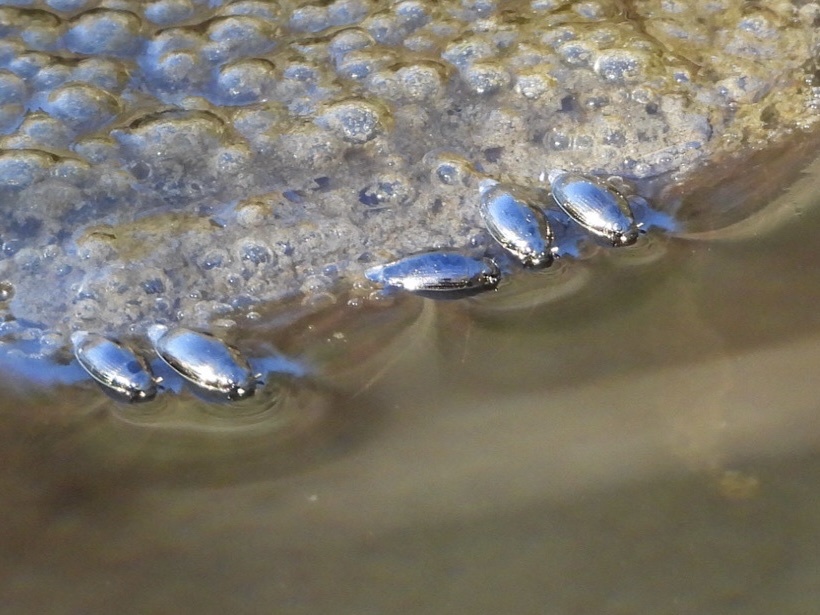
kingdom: Animalia
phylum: Arthropoda
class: Insecta
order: Coleoptera
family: Gyrinidae
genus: Gyrinus
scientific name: Gyrinus
